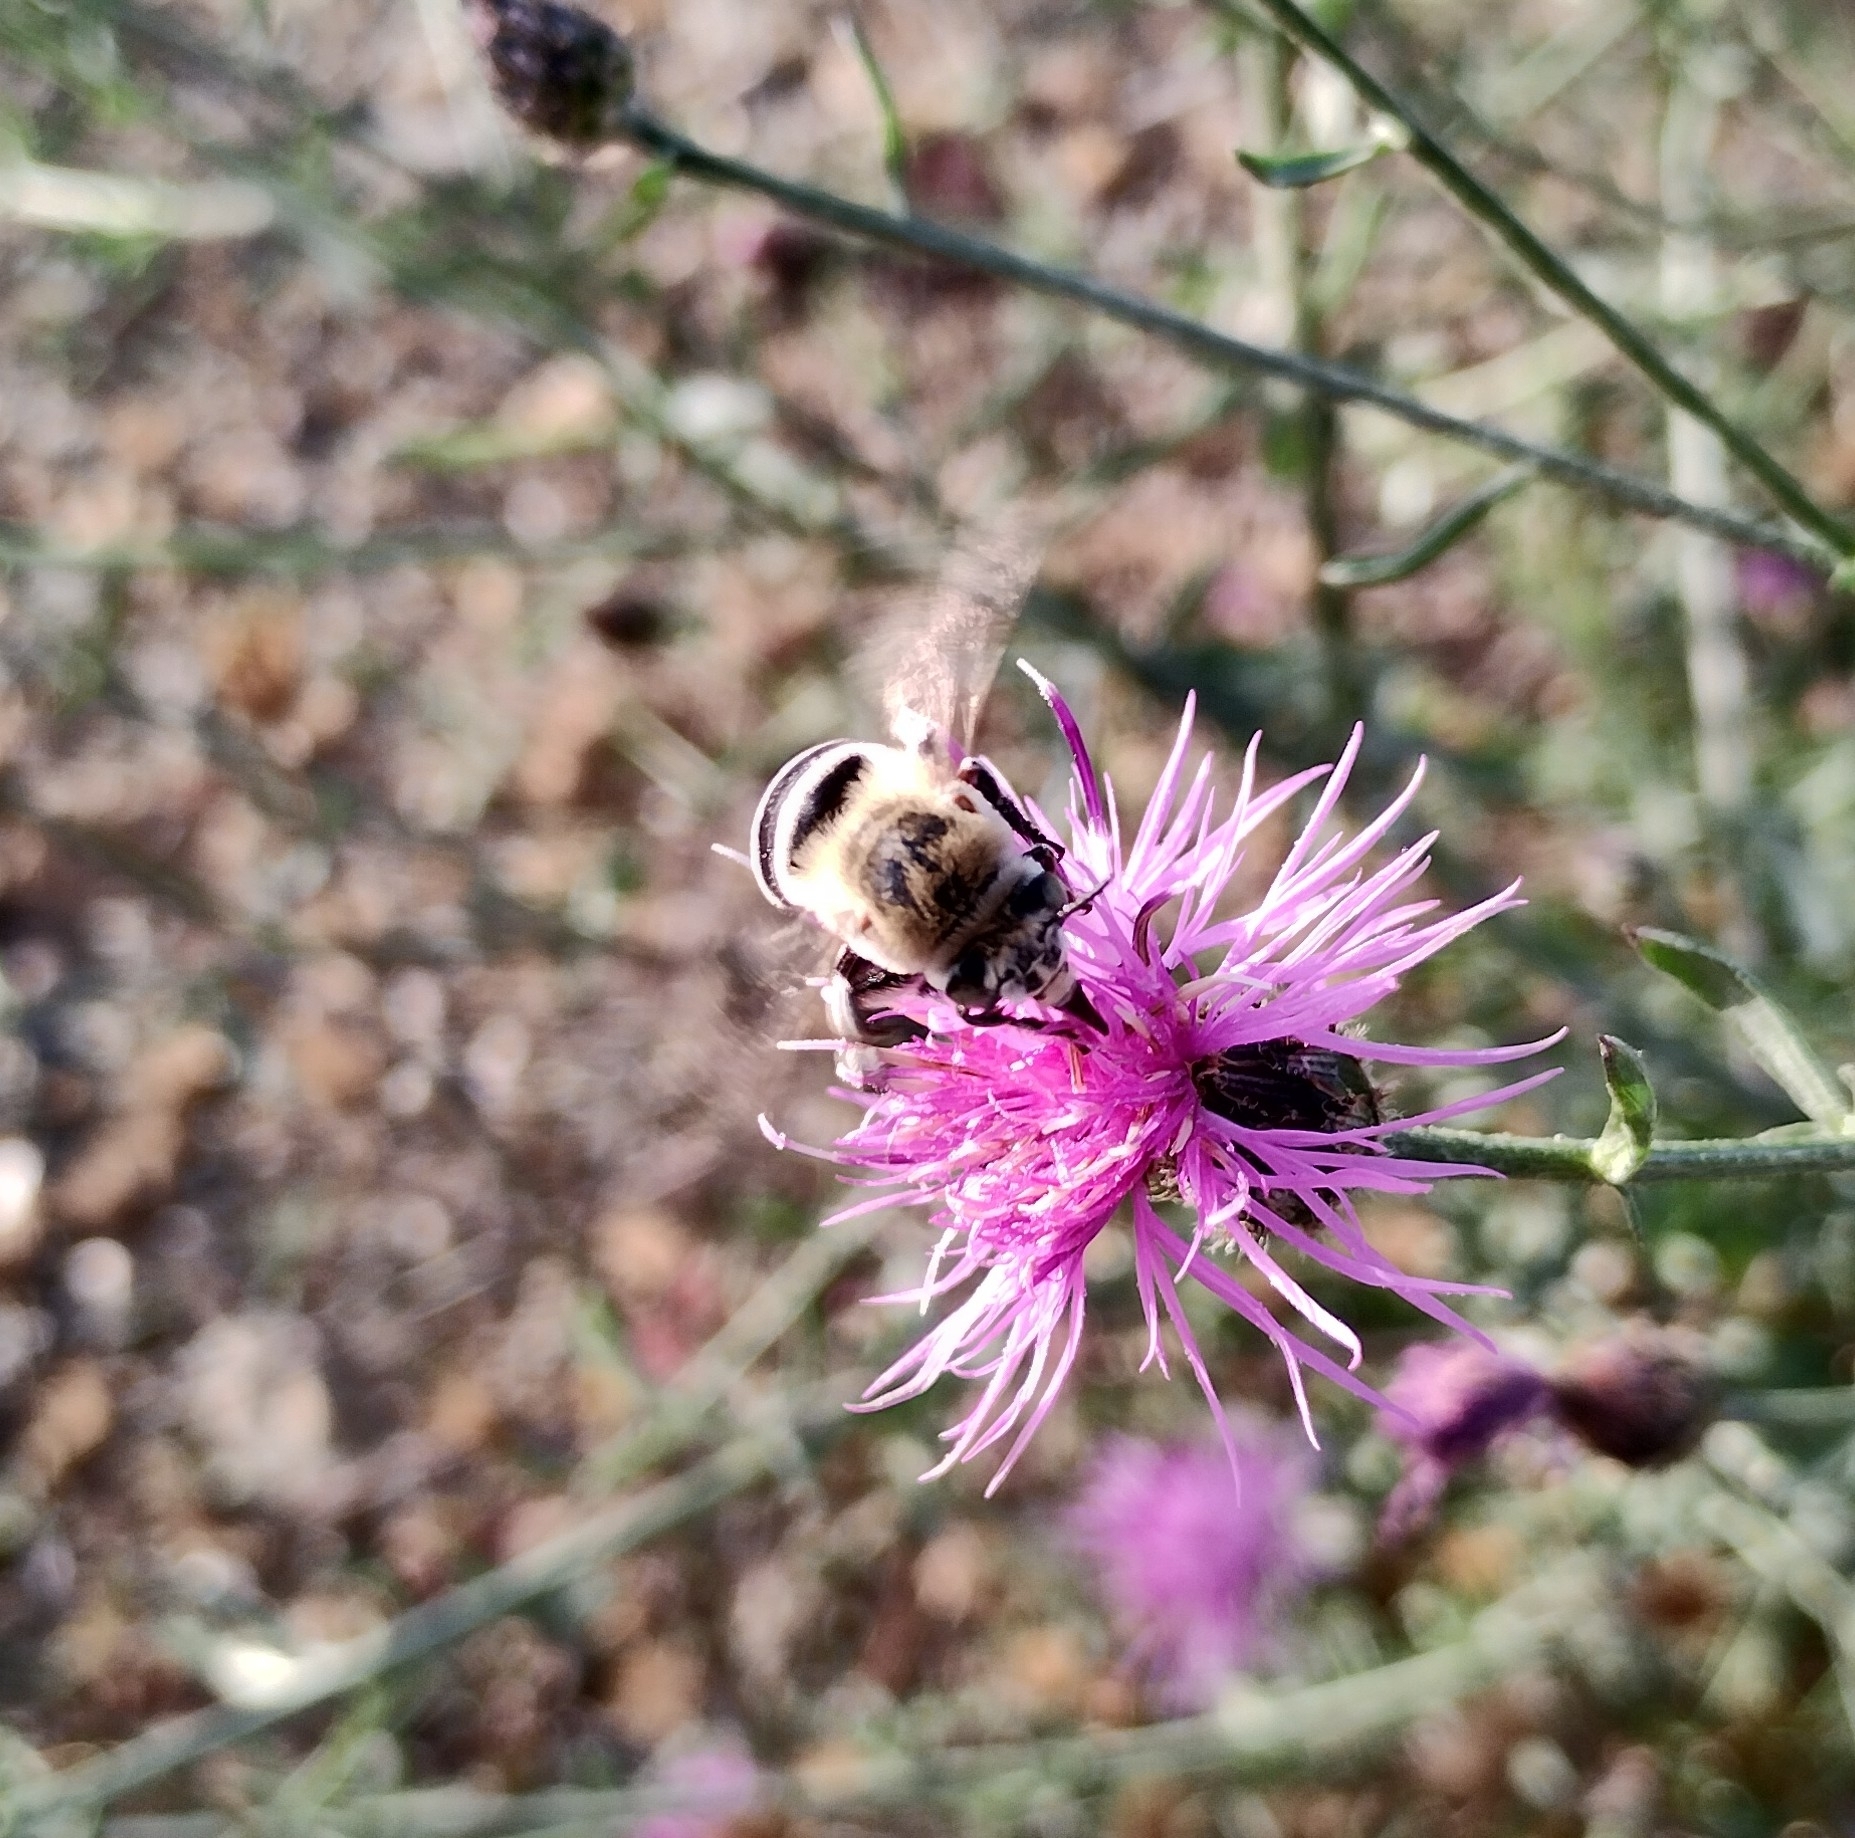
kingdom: Animalia
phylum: Arthropoda
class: Insecta
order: Hymenoptera
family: Apidae
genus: Amegilla
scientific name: Amegilla quadrifasciata
